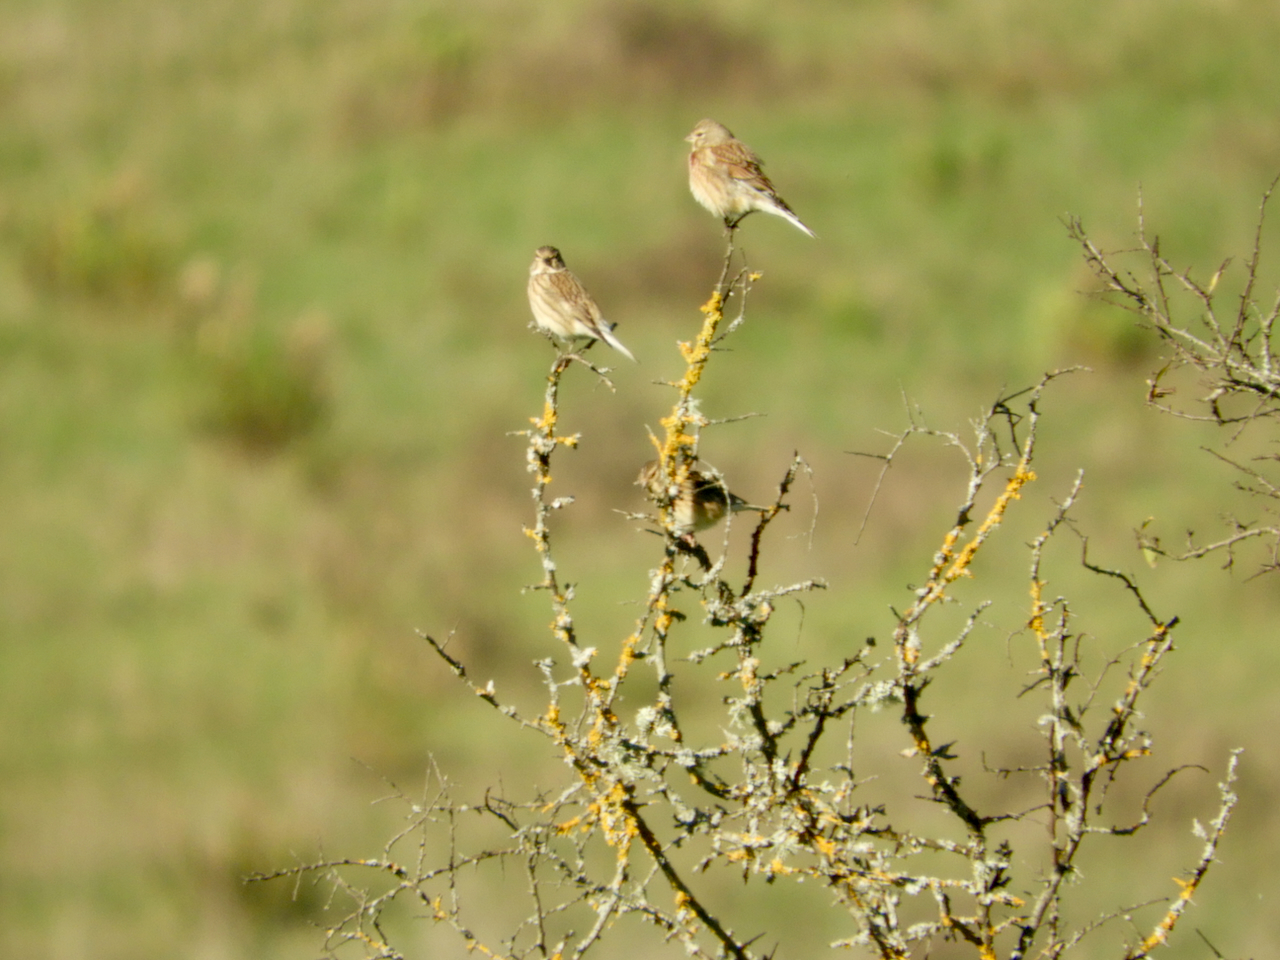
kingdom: Animalia
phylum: Chordata
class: Aves
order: Passeriformes
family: Fringillidae
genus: Linaria
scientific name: Linaria cannabina
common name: Common linnet
